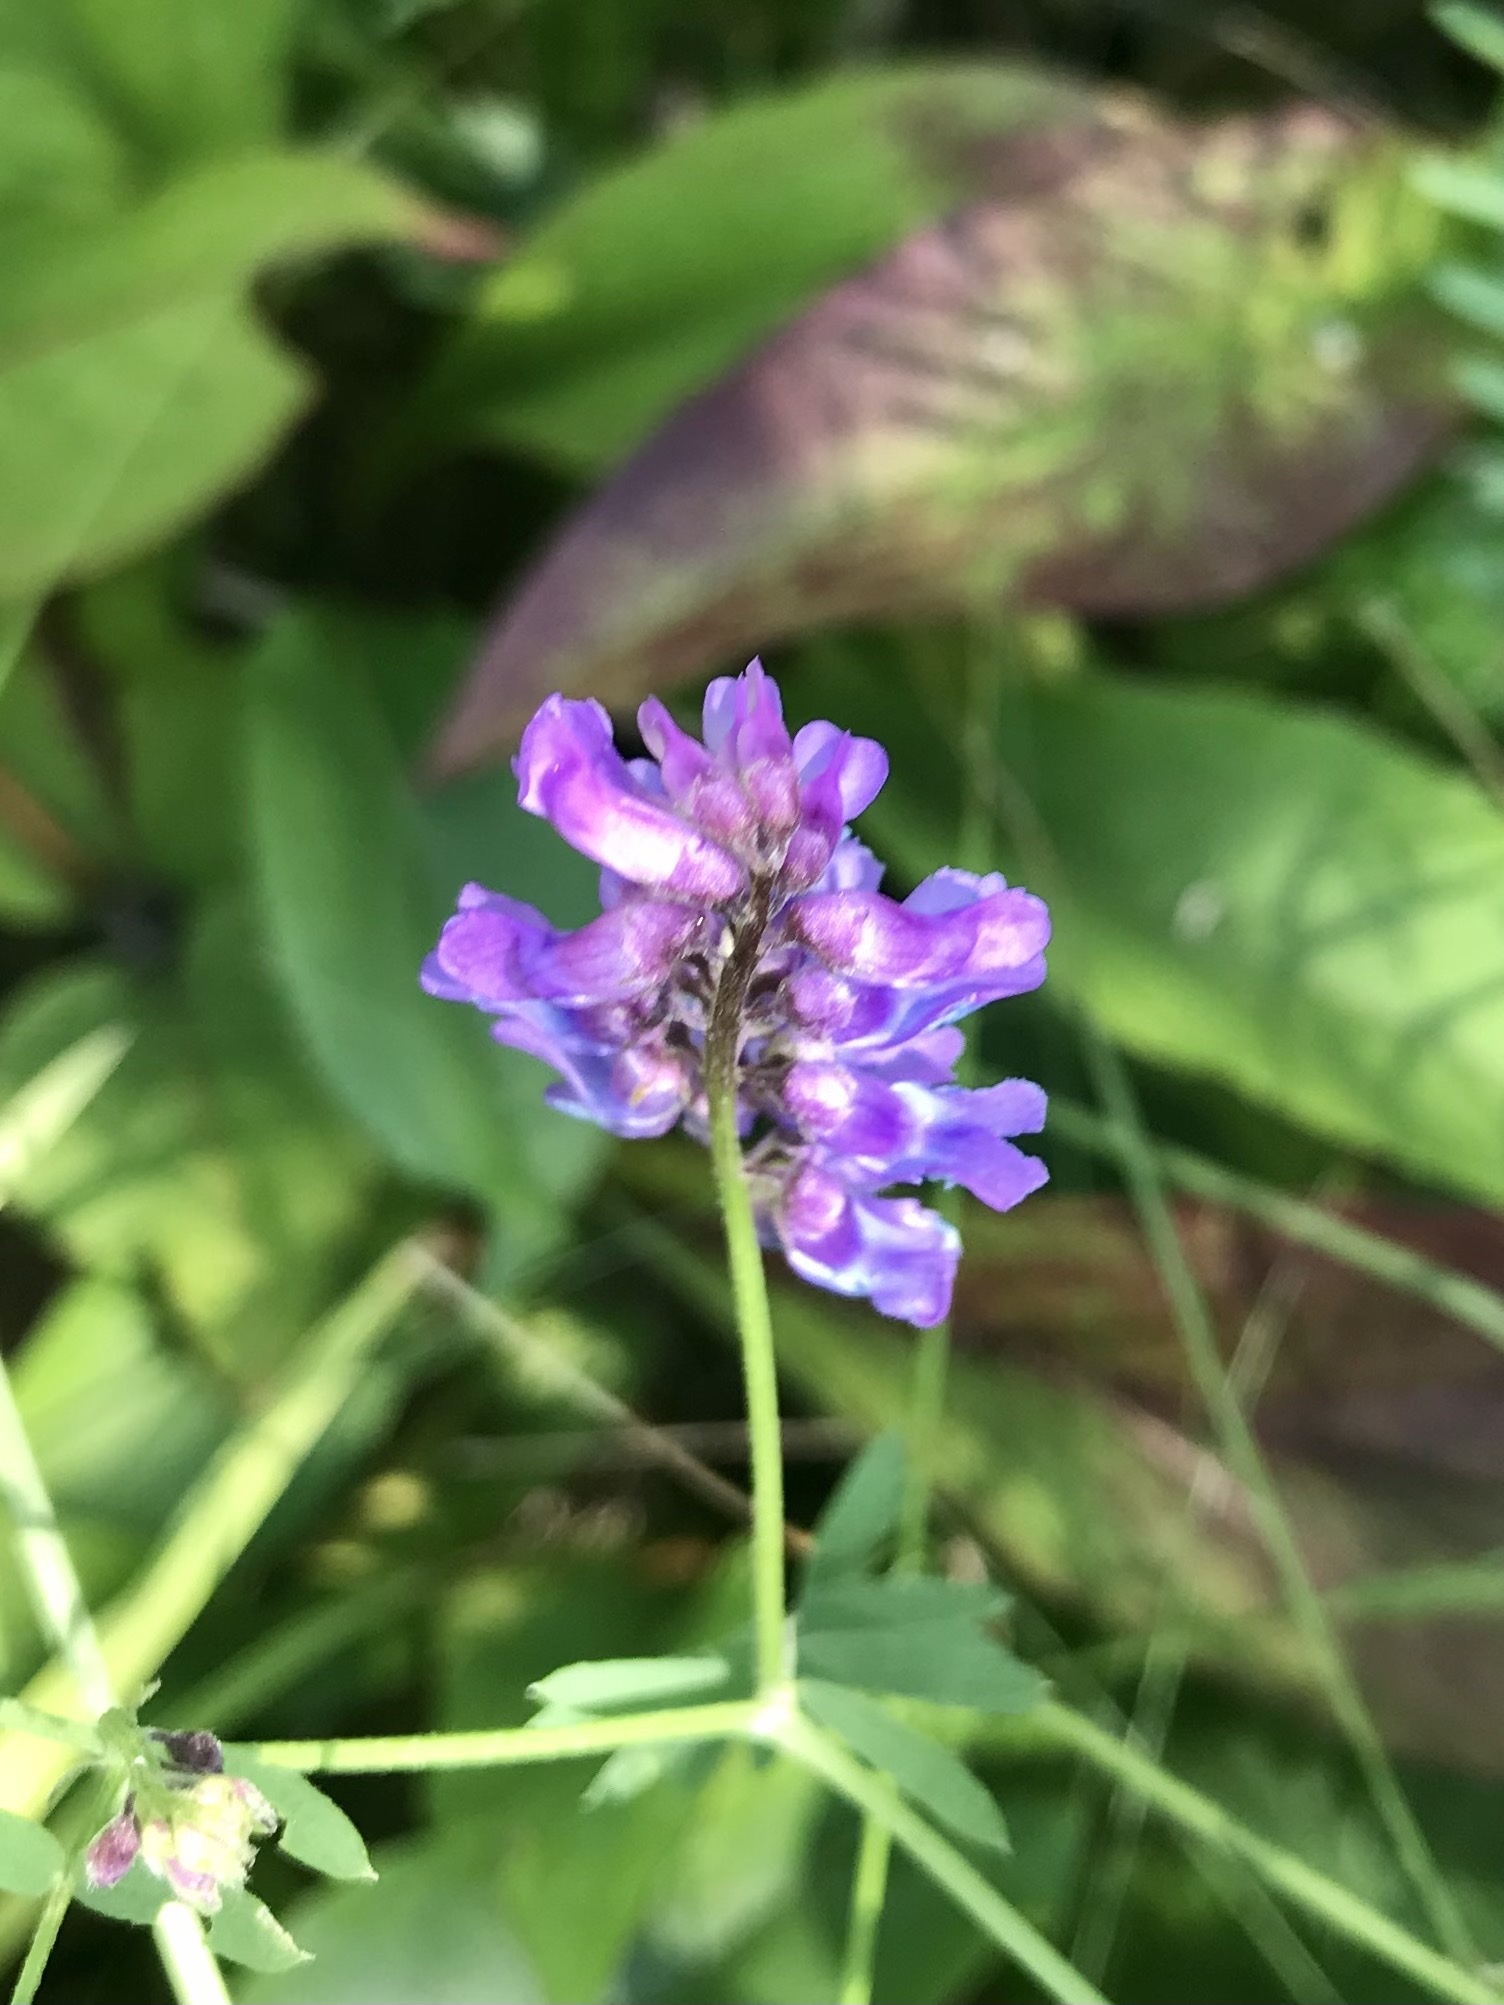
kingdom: Plantae
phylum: Tracheophyta
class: Magnoliopsida
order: Fabales
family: Fabaceae
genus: Vicia
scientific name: Vicia cracca
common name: Bird vetch
